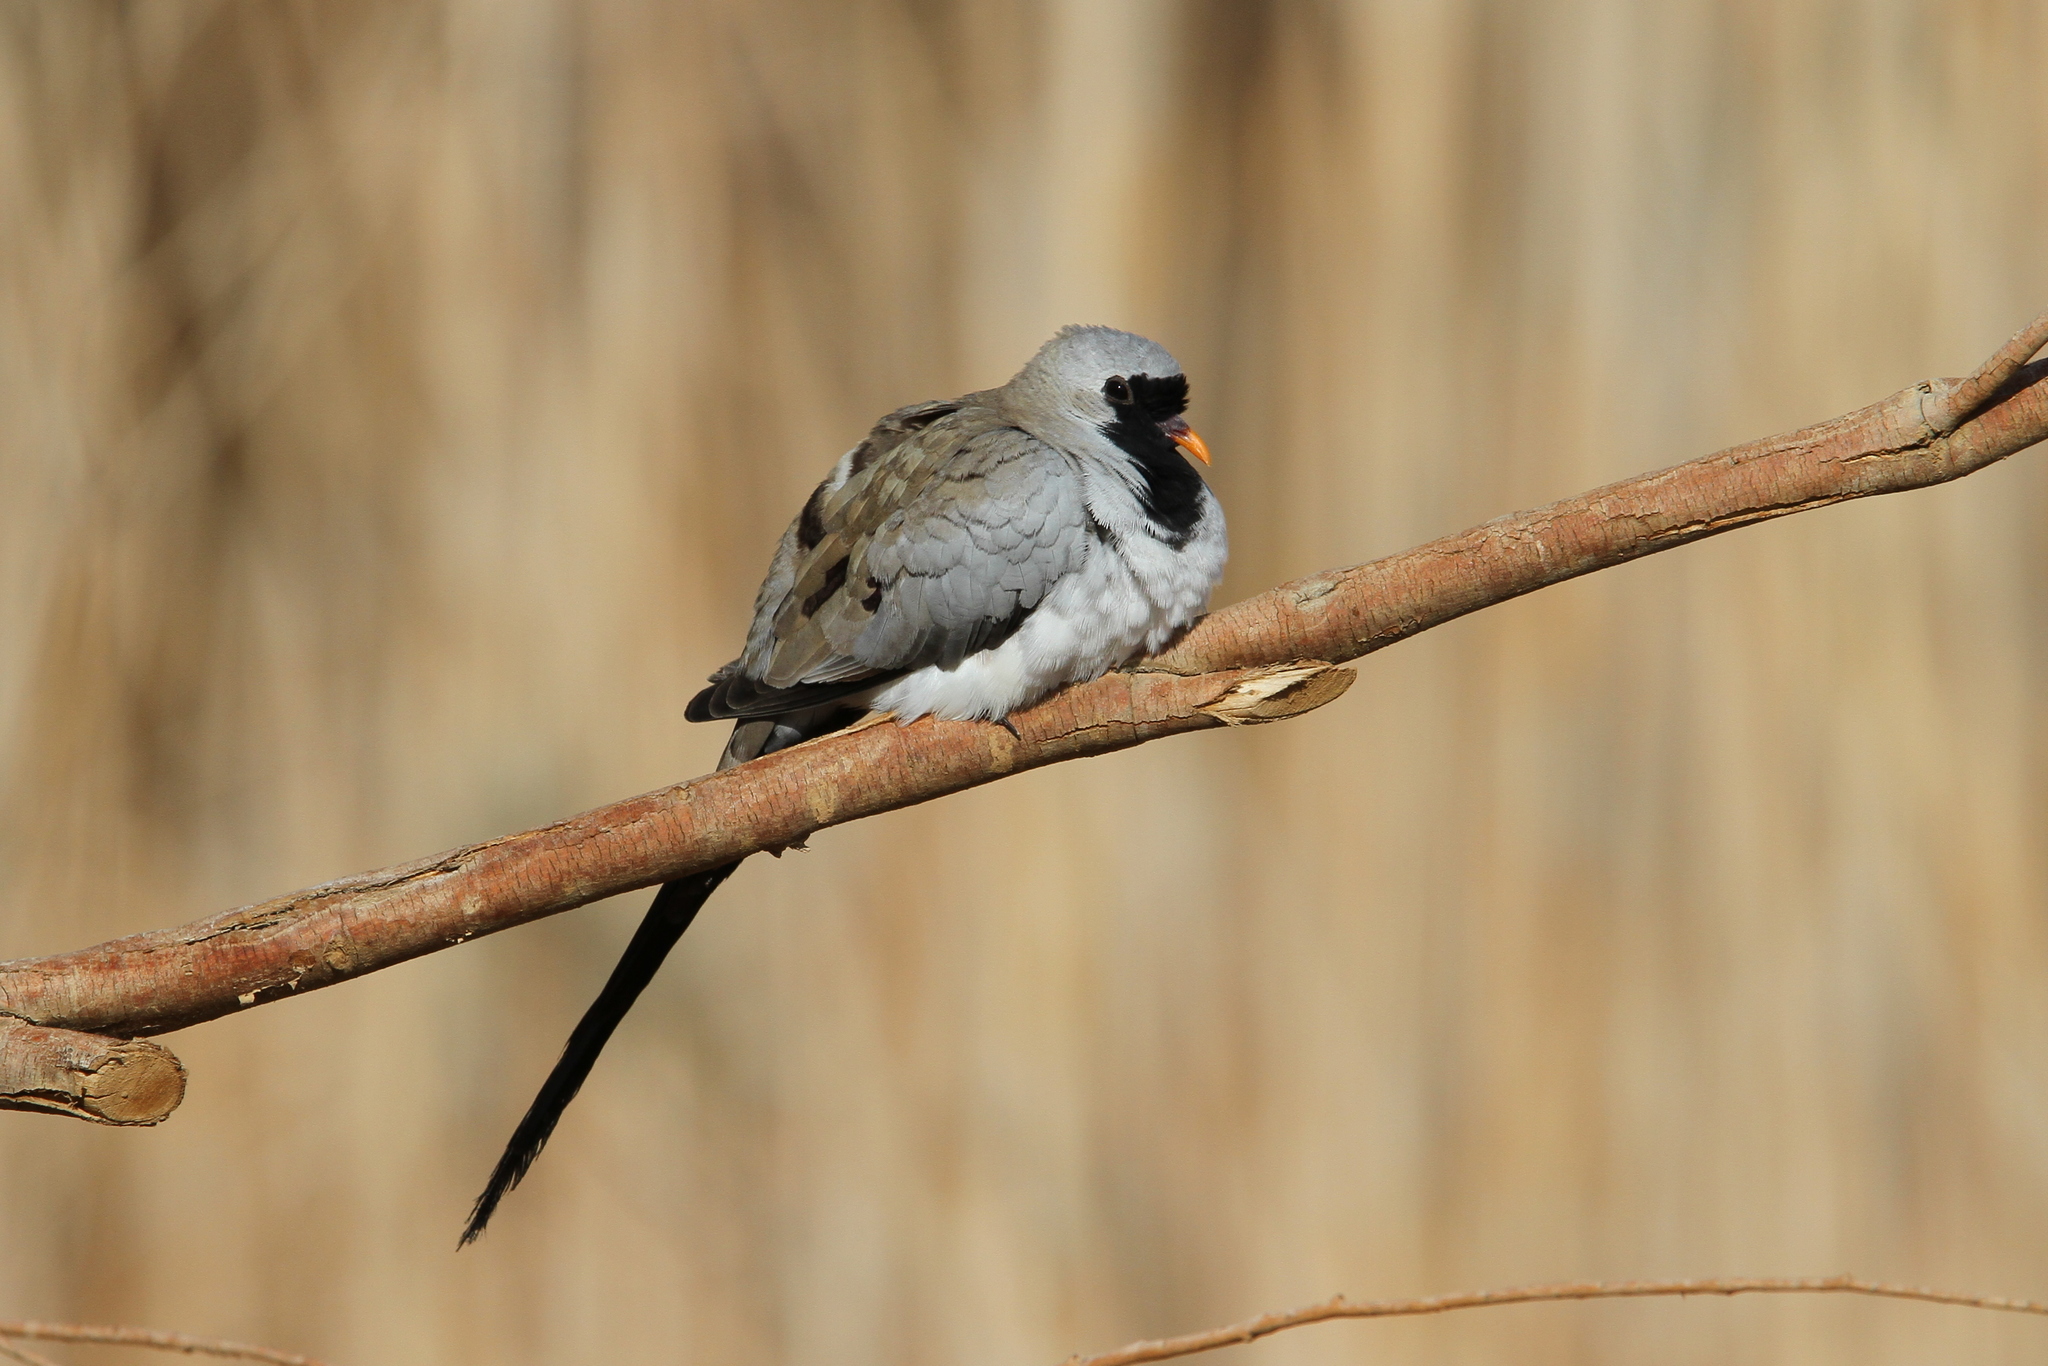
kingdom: Animalia
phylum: Chordata
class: Aves
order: Columbiformes
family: Columbidae
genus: Oena
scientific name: Oena capensis
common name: Namaqua dove
